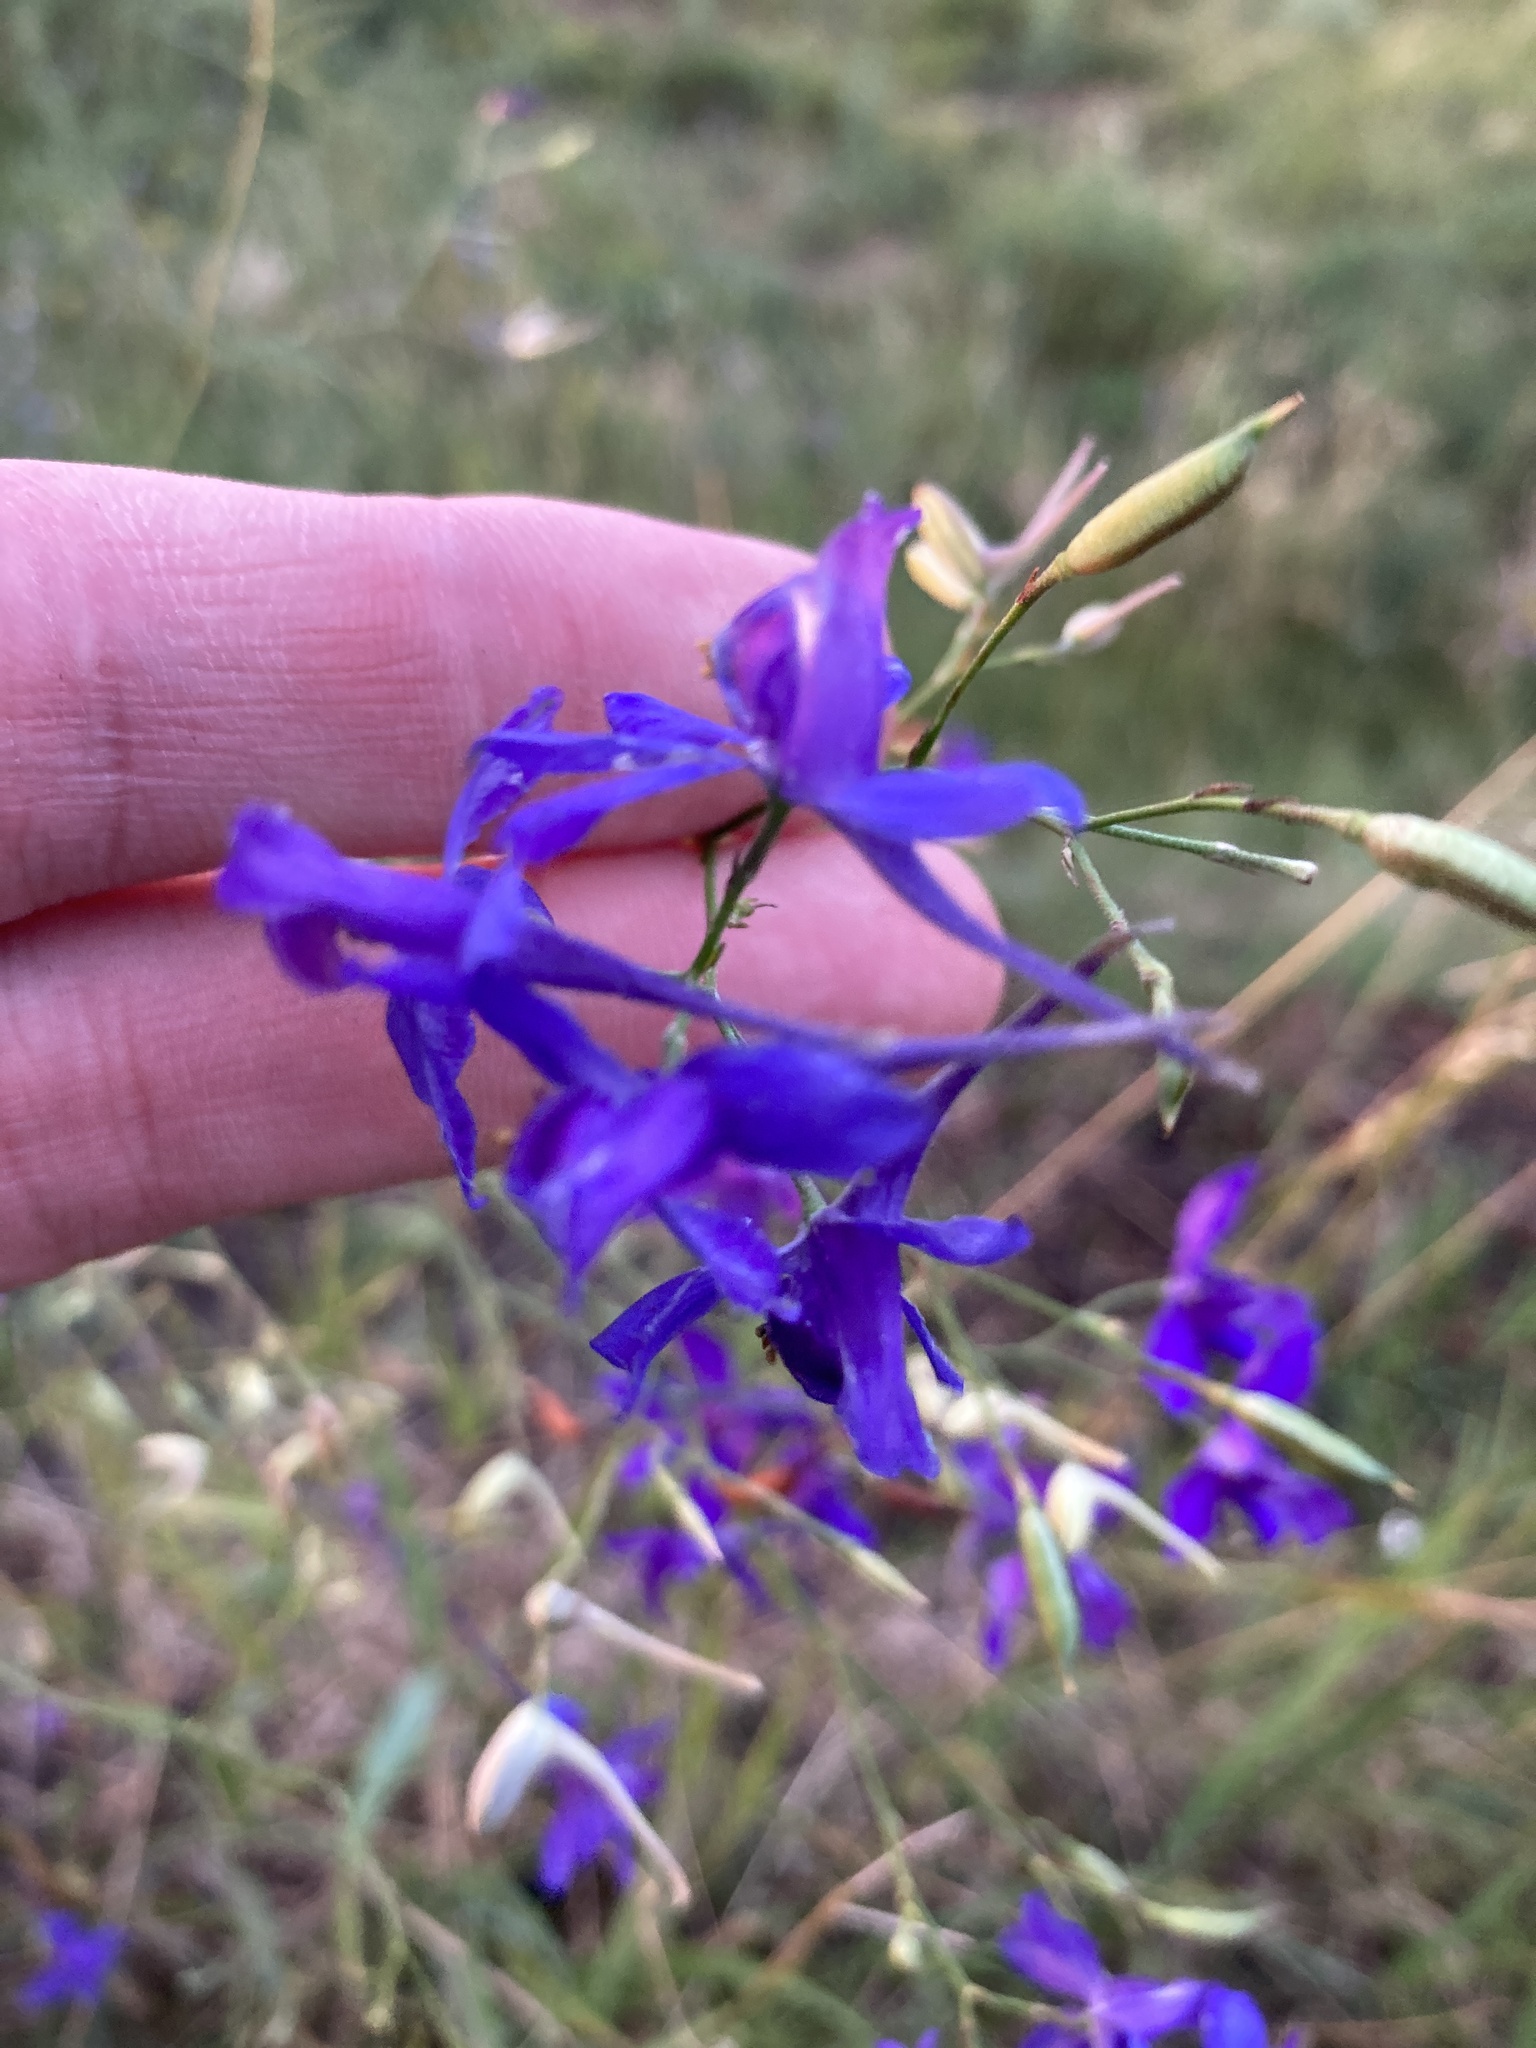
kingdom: Plantae
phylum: Tracheophyta
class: Magnoliopsida
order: Ranunculales
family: Ranunculaceae
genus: Delphinium
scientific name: Delphinium consolida
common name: Branching larkspur
